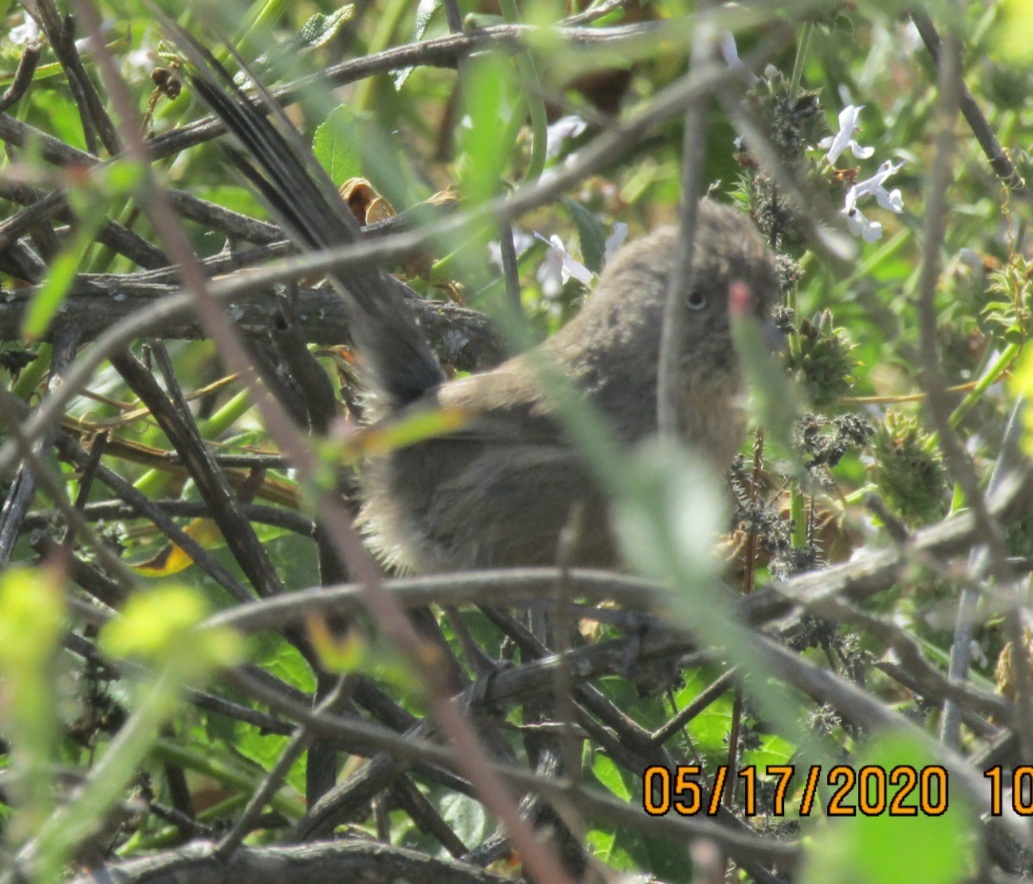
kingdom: Animalia
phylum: Chordata
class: Aves
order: Passeriformes
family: Sylviidae
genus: Chamaea
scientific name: Chamaea fasciata
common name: Wrentit
